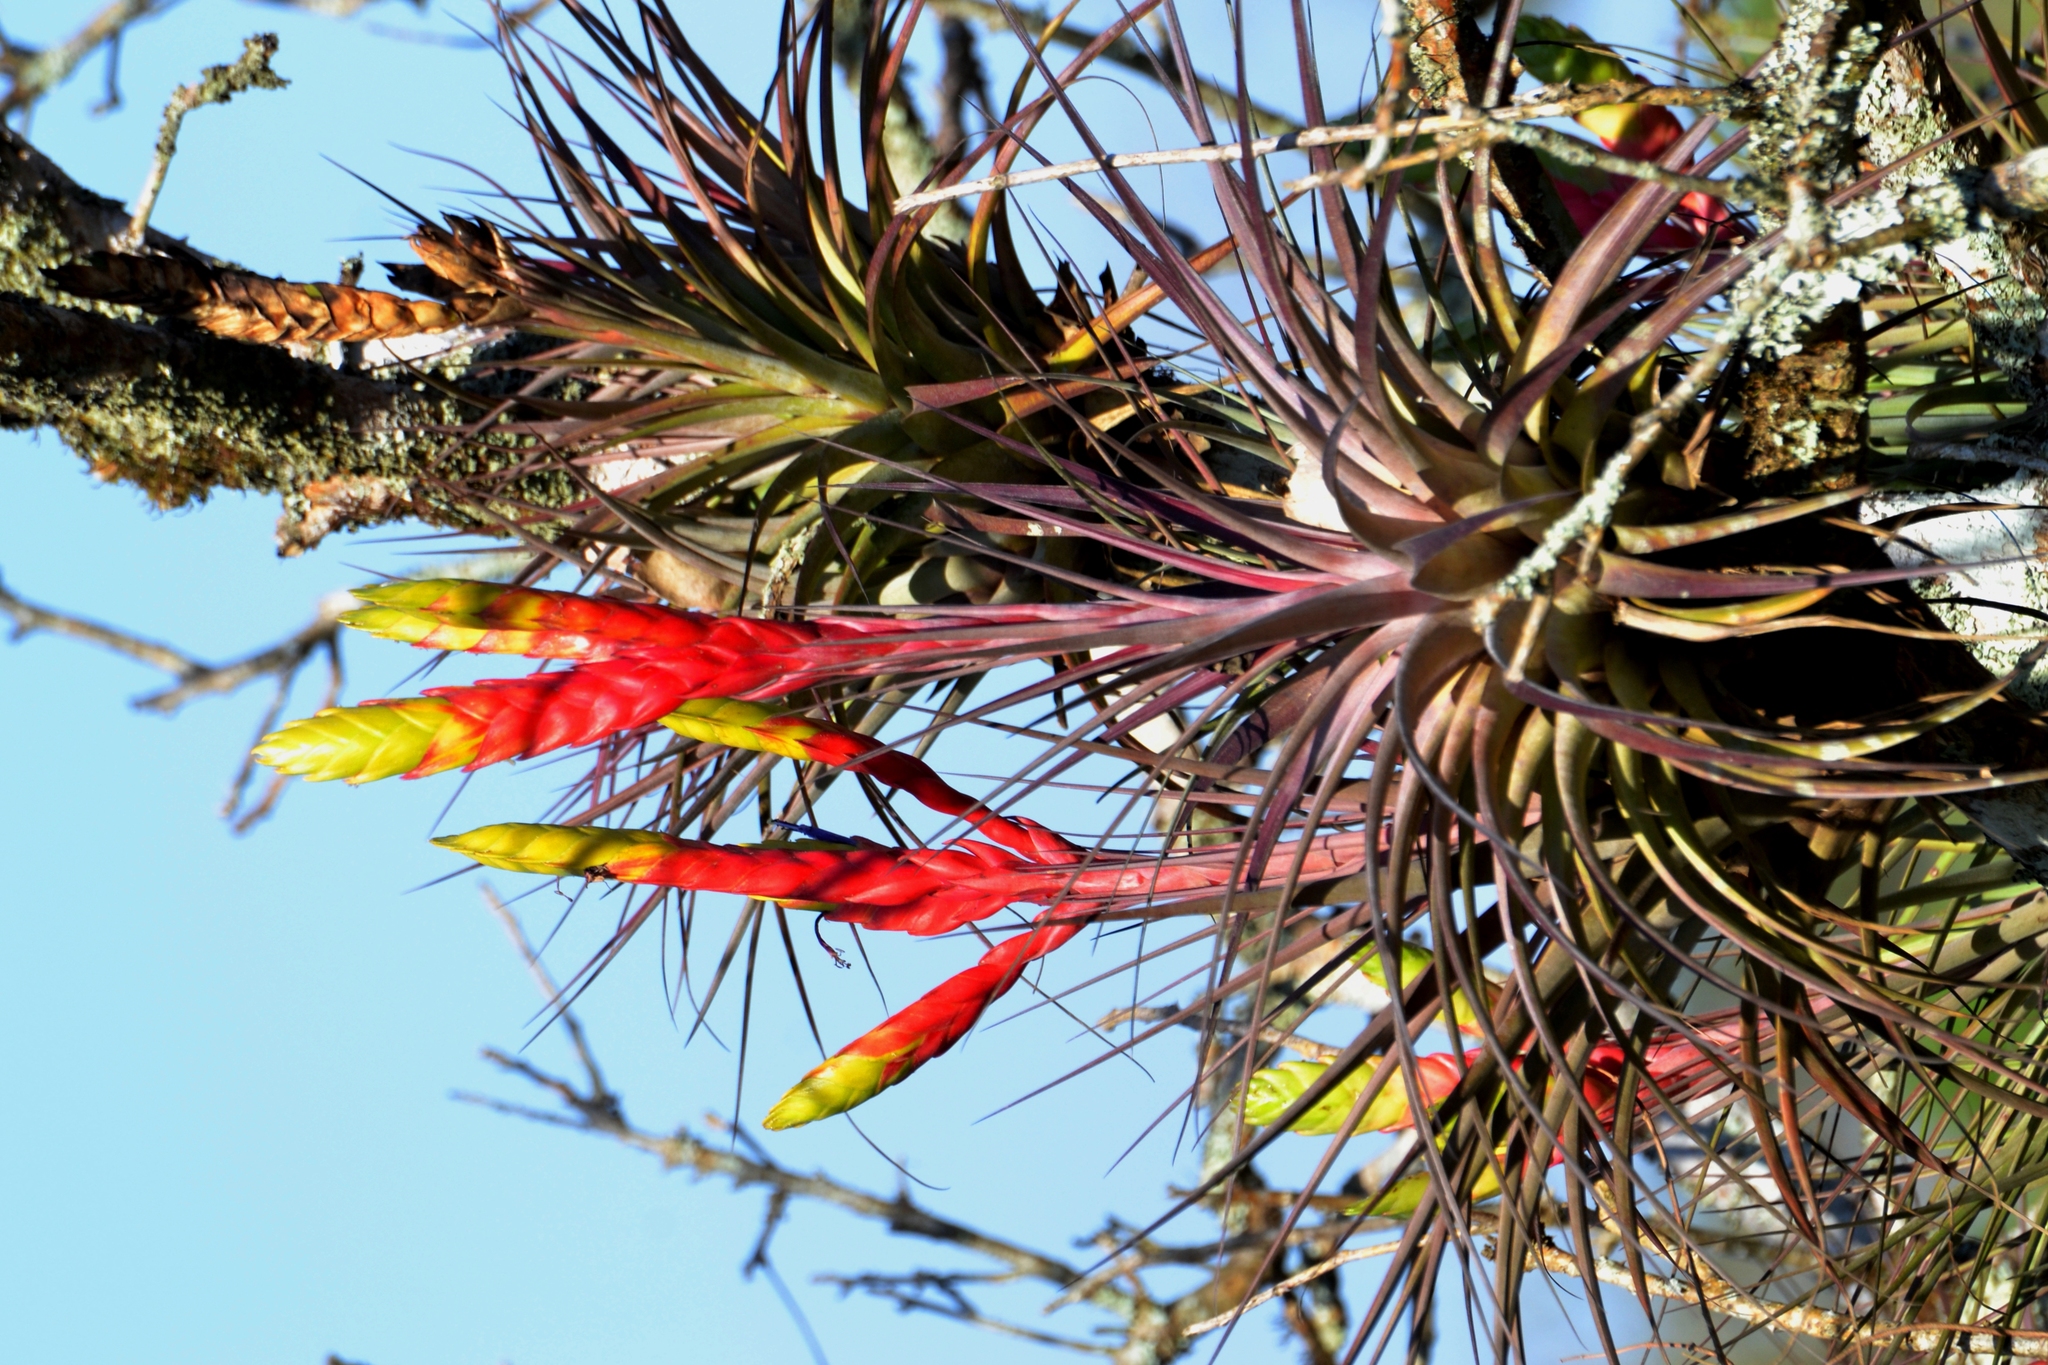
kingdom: Plantae
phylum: Tracheophyta
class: Liliopsida
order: Poales
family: Bromeliaceae
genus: Tillandsia
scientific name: Tillandsia fasciculata
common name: Giant airplant
